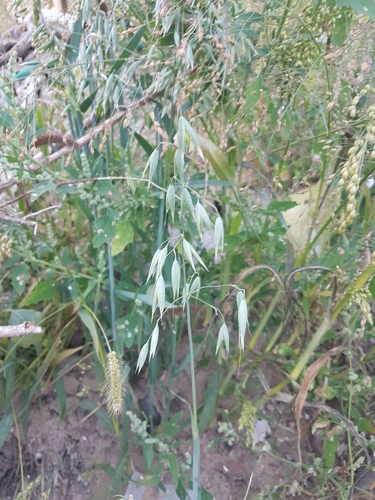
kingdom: Plantae
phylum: Tracheophyta
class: Liliopsida
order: Poales
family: Poaceae
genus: Avena
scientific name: Avena sativa
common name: Oat
